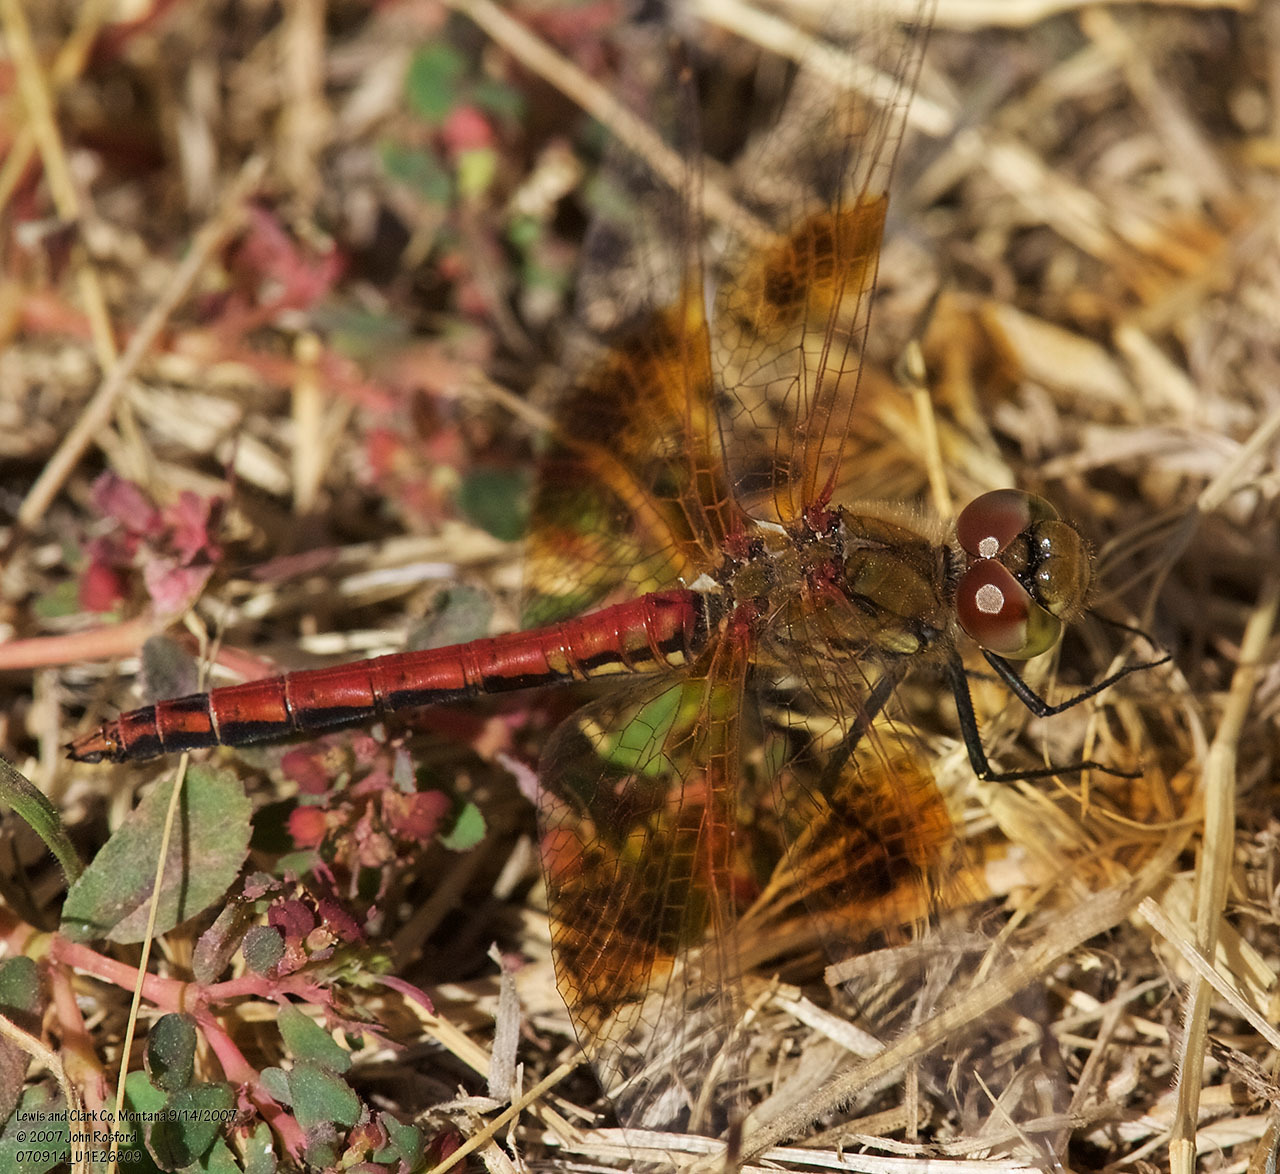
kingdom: Animalia
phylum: Arthropoda
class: Insecta
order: Odonata
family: Libellulidae
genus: Sympetrum
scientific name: Sympetrum semicinctum
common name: Band-winged meadowhawk
